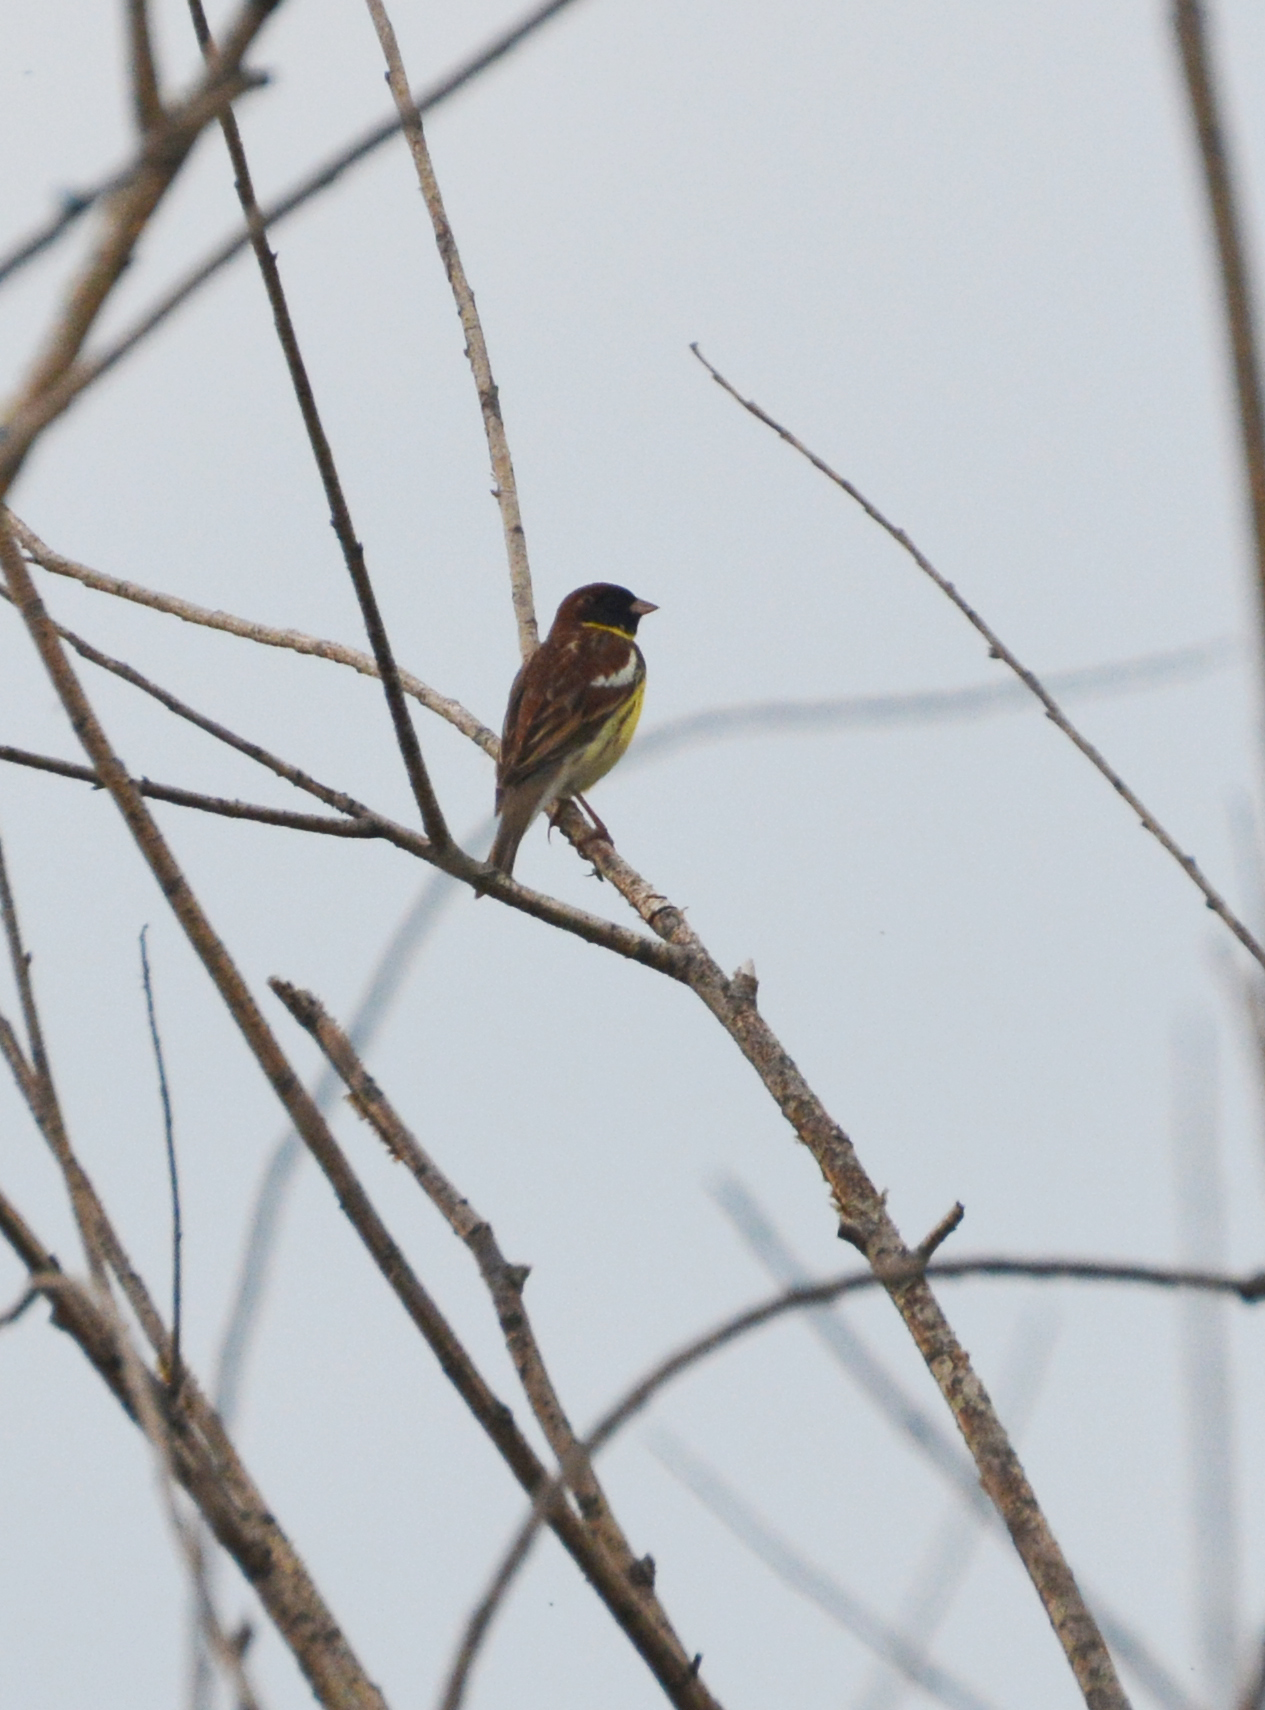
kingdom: Animalia
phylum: Chordata
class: Aves
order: Passeriformes
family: Emberizidae
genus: Emberiza
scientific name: Emberiza aureola
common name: Yellow-breasted bunting
